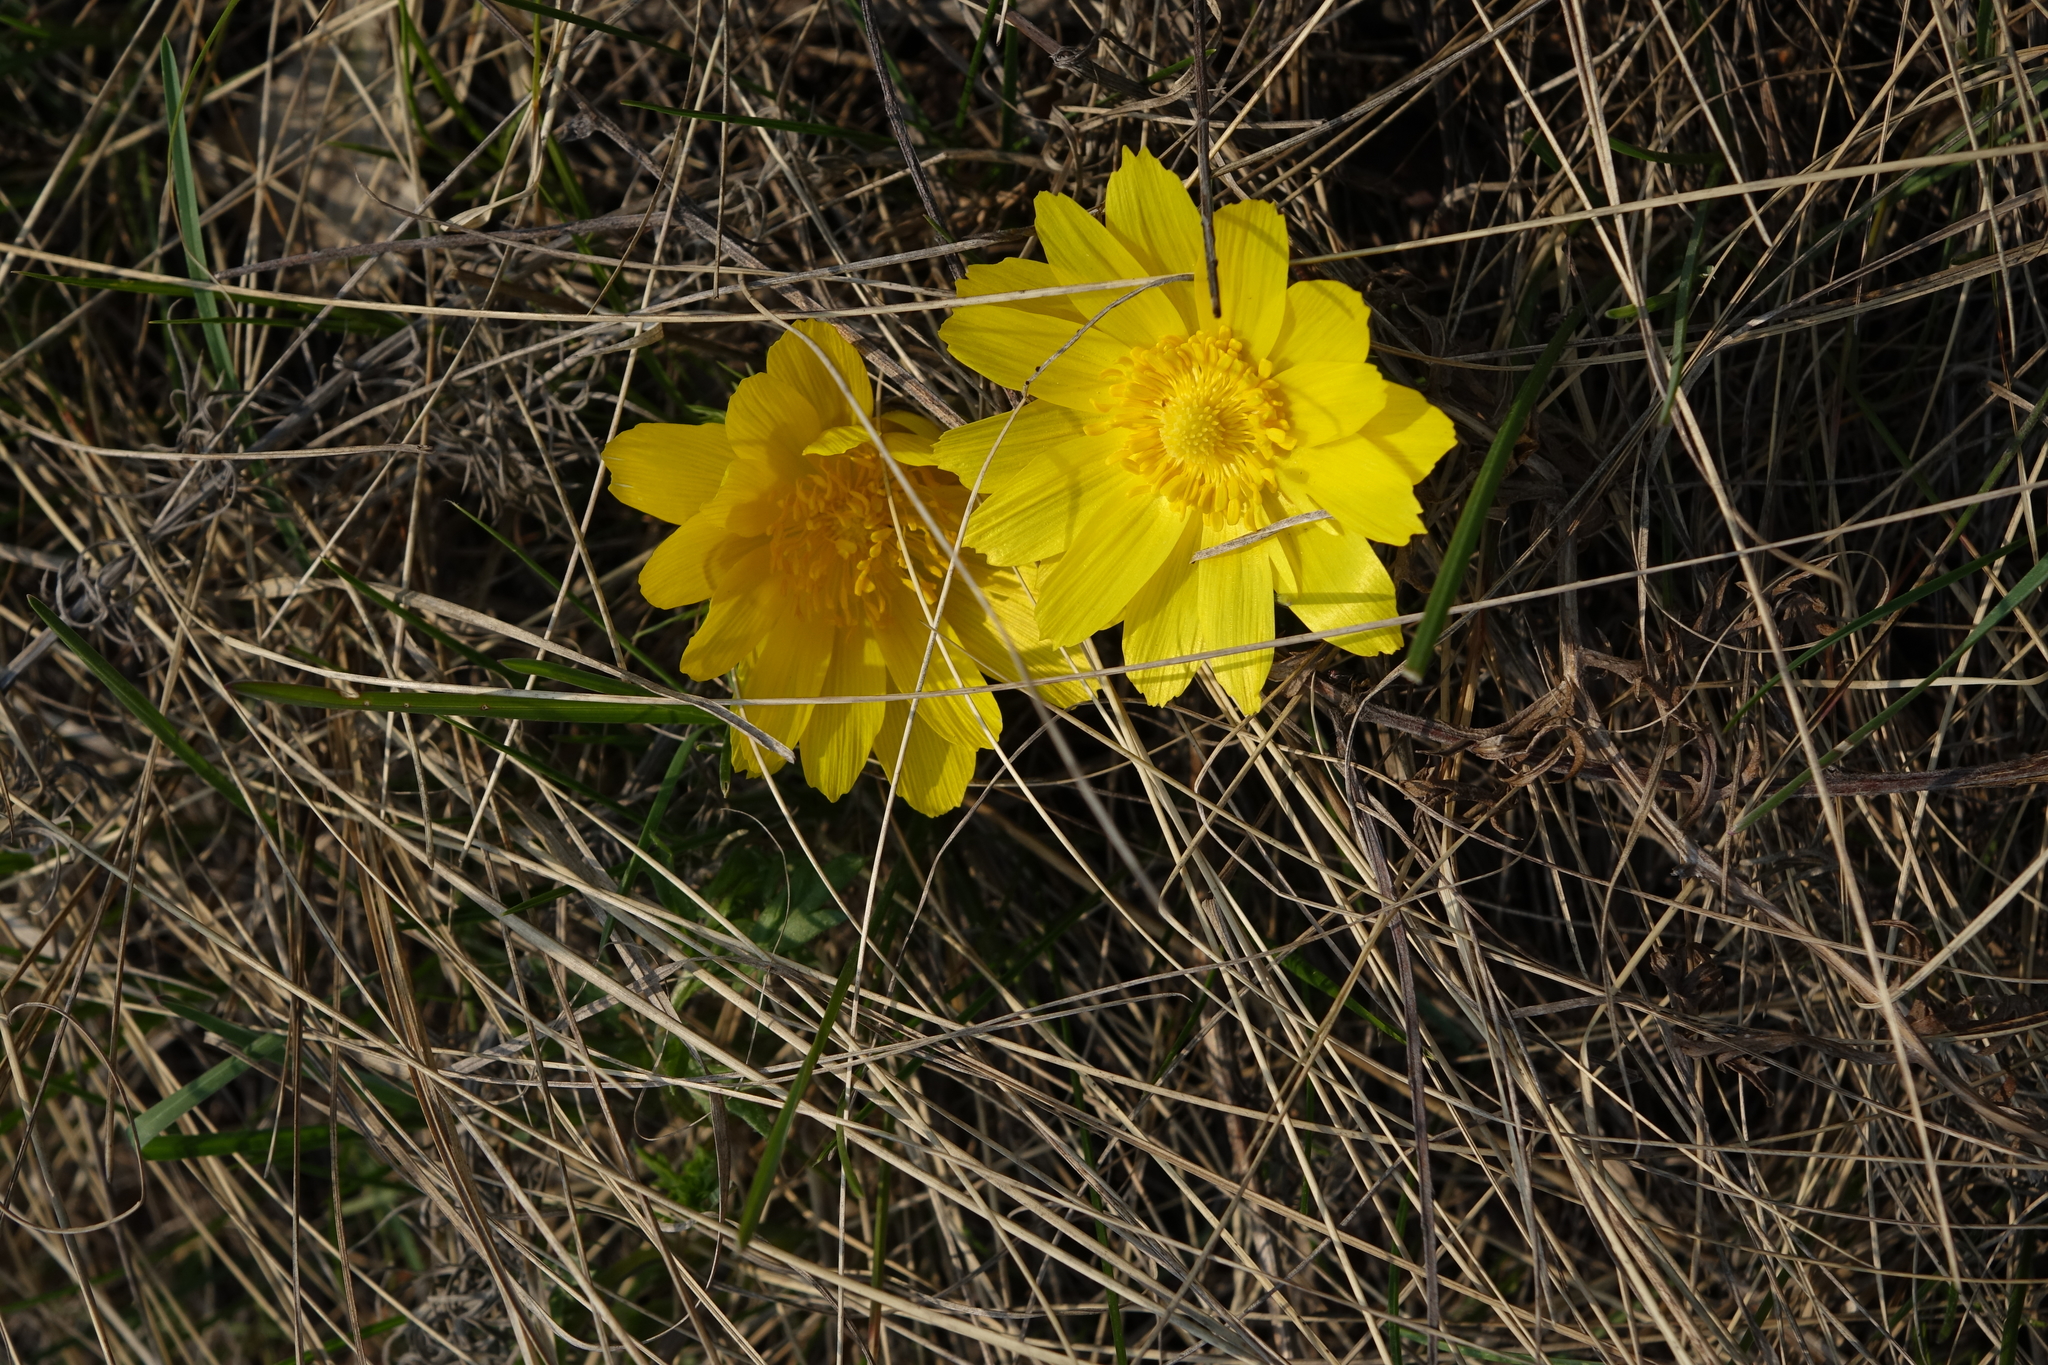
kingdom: Plantae
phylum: Tracheophyta
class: Magnoliopsida
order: Ranunculales
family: Ranunculaceae
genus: Adonis
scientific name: Adonis vernalis
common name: Yellow pheasants-eye
